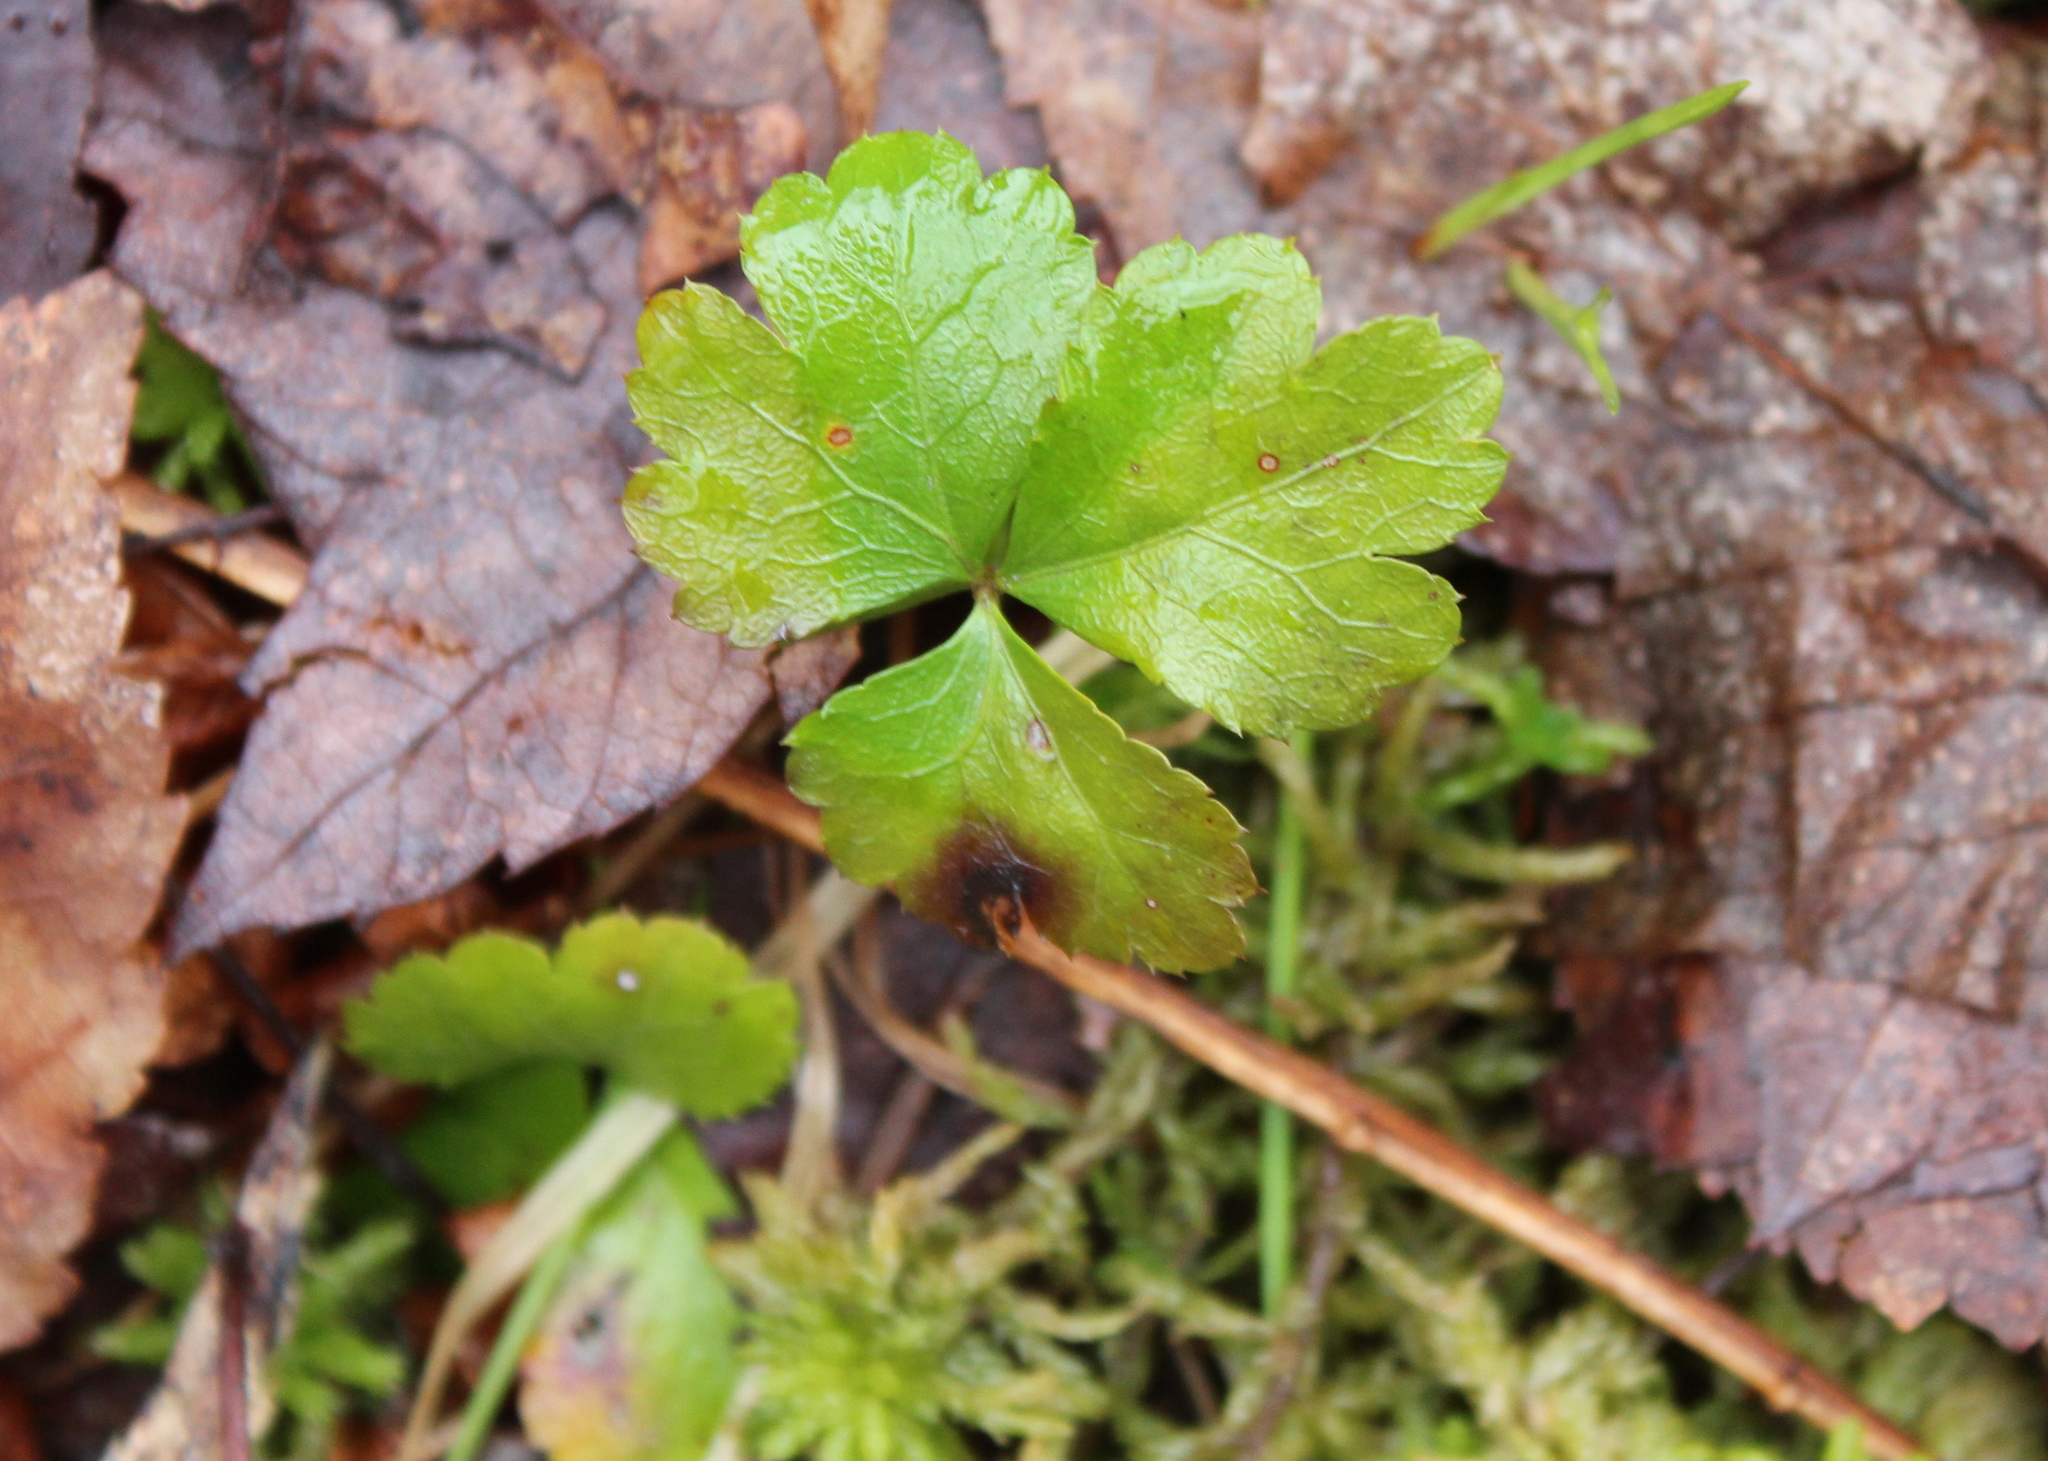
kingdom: Plantae
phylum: Tracheophyta
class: Magnoliopsida
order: Ranunculales
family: Ranunculaceae
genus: Coptis
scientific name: Coptis trifolia
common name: Canker-root
